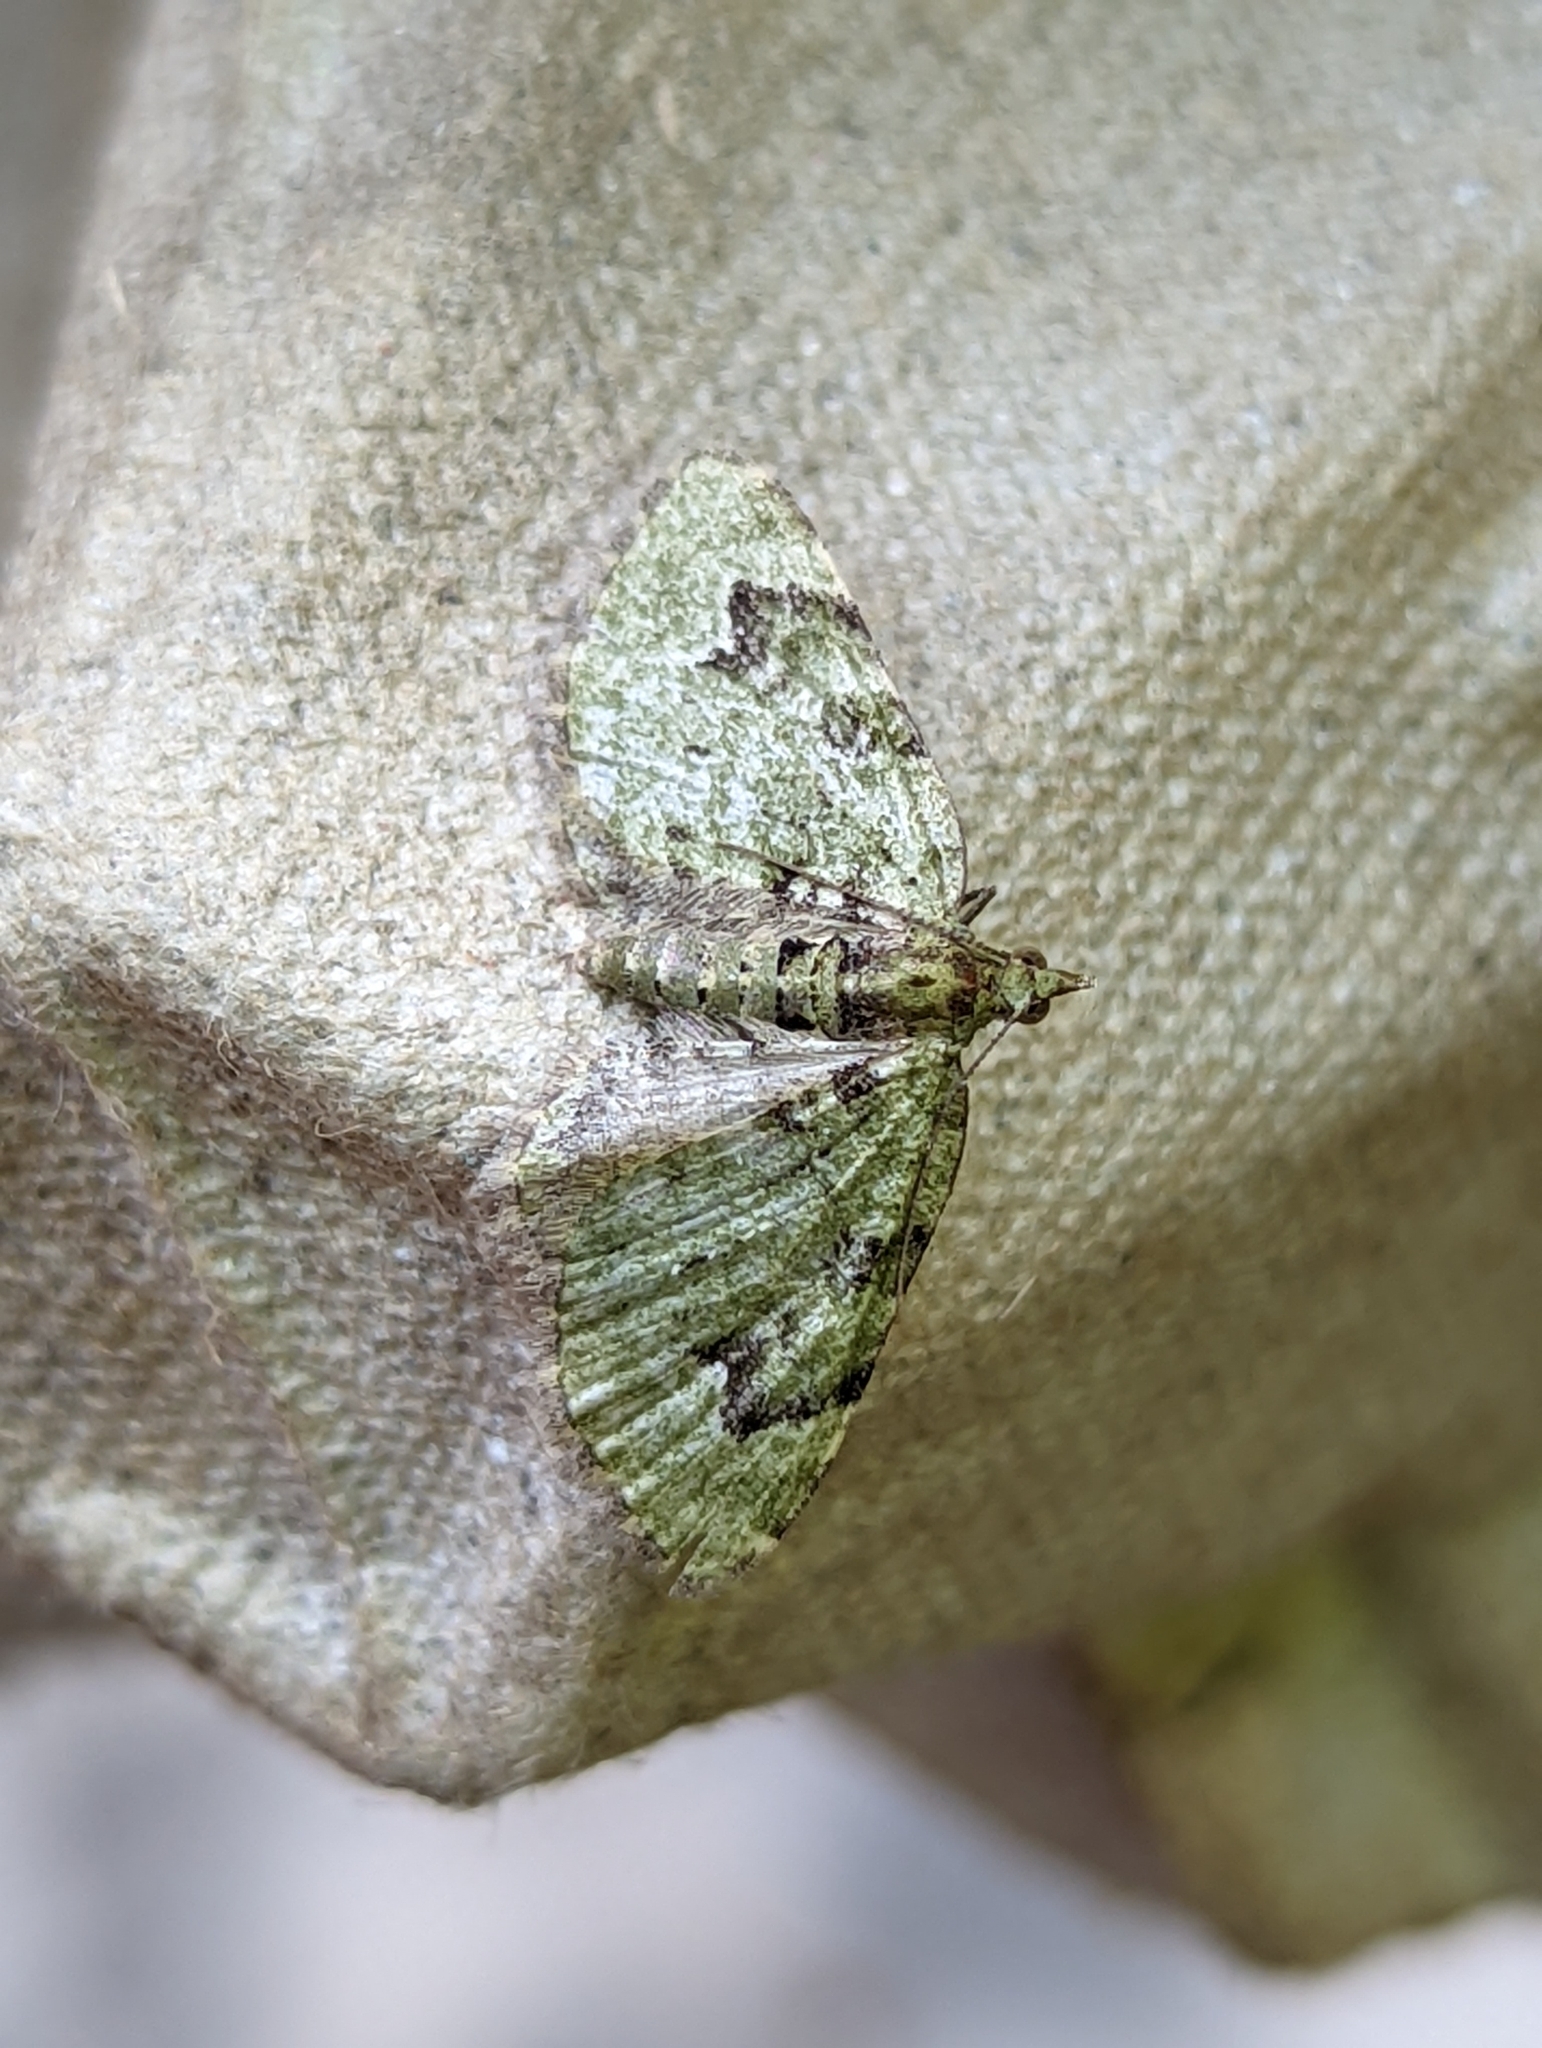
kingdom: Animalia
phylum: Arthropoda
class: Insecta
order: Lepidoptera
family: Geometridae
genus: Chloroclystis
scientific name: Chloroclystis v-ata
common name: V-pug
